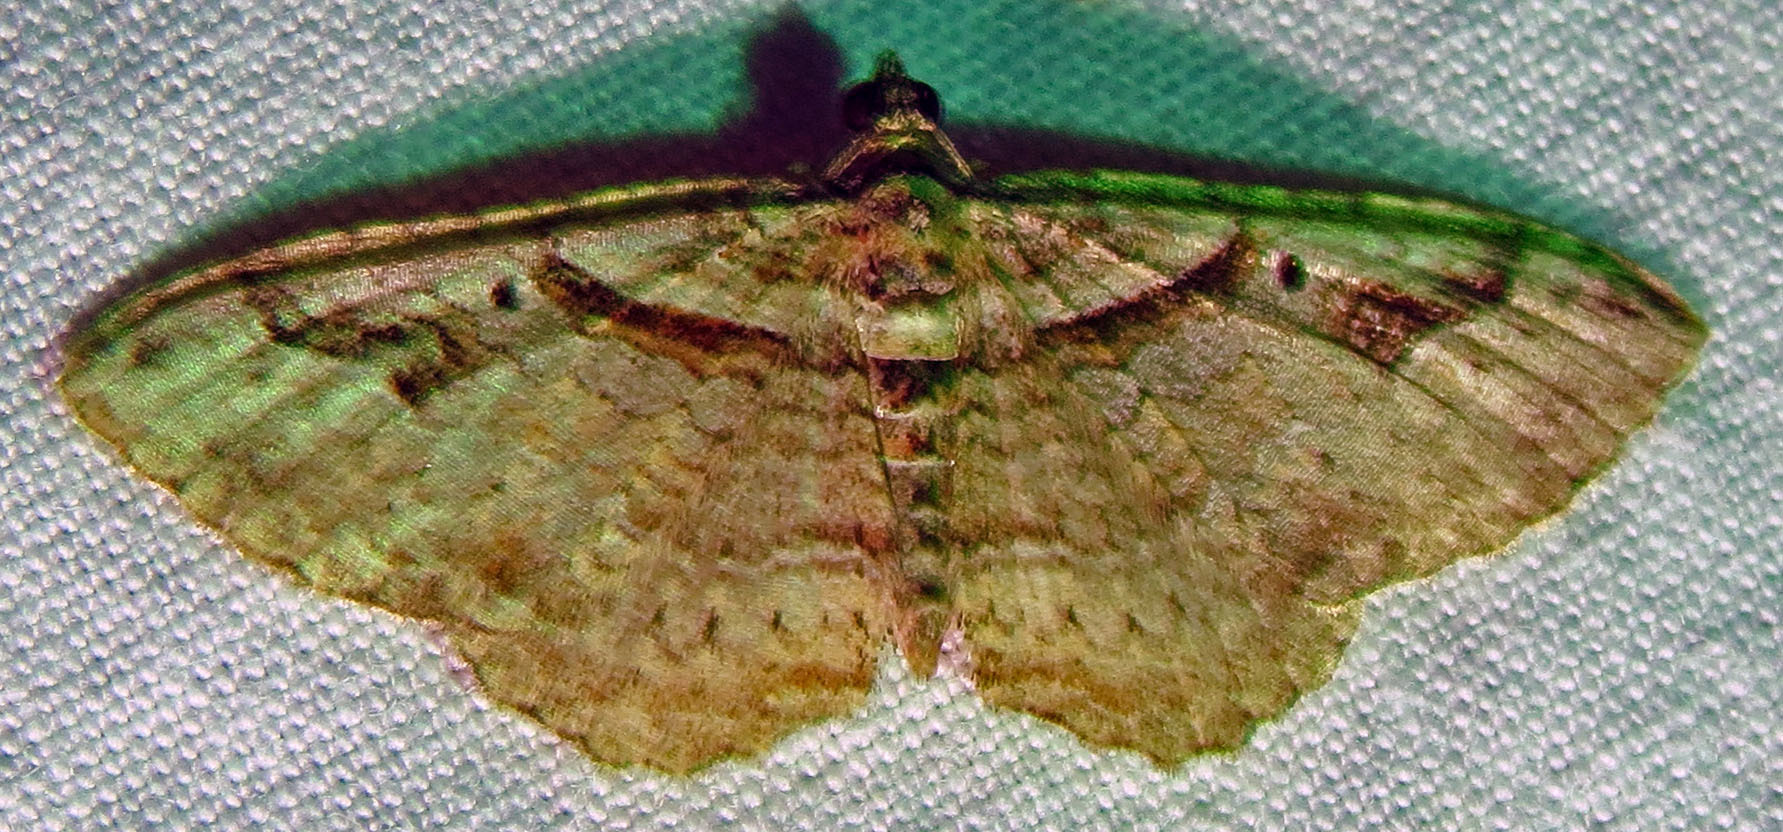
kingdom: Animalia
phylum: Arthropoda
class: Insecta
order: Lepidoptera
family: Geometridae
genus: Costaconvexa
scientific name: Costaconvexa centrostrigaria
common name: Bent-line carpet
